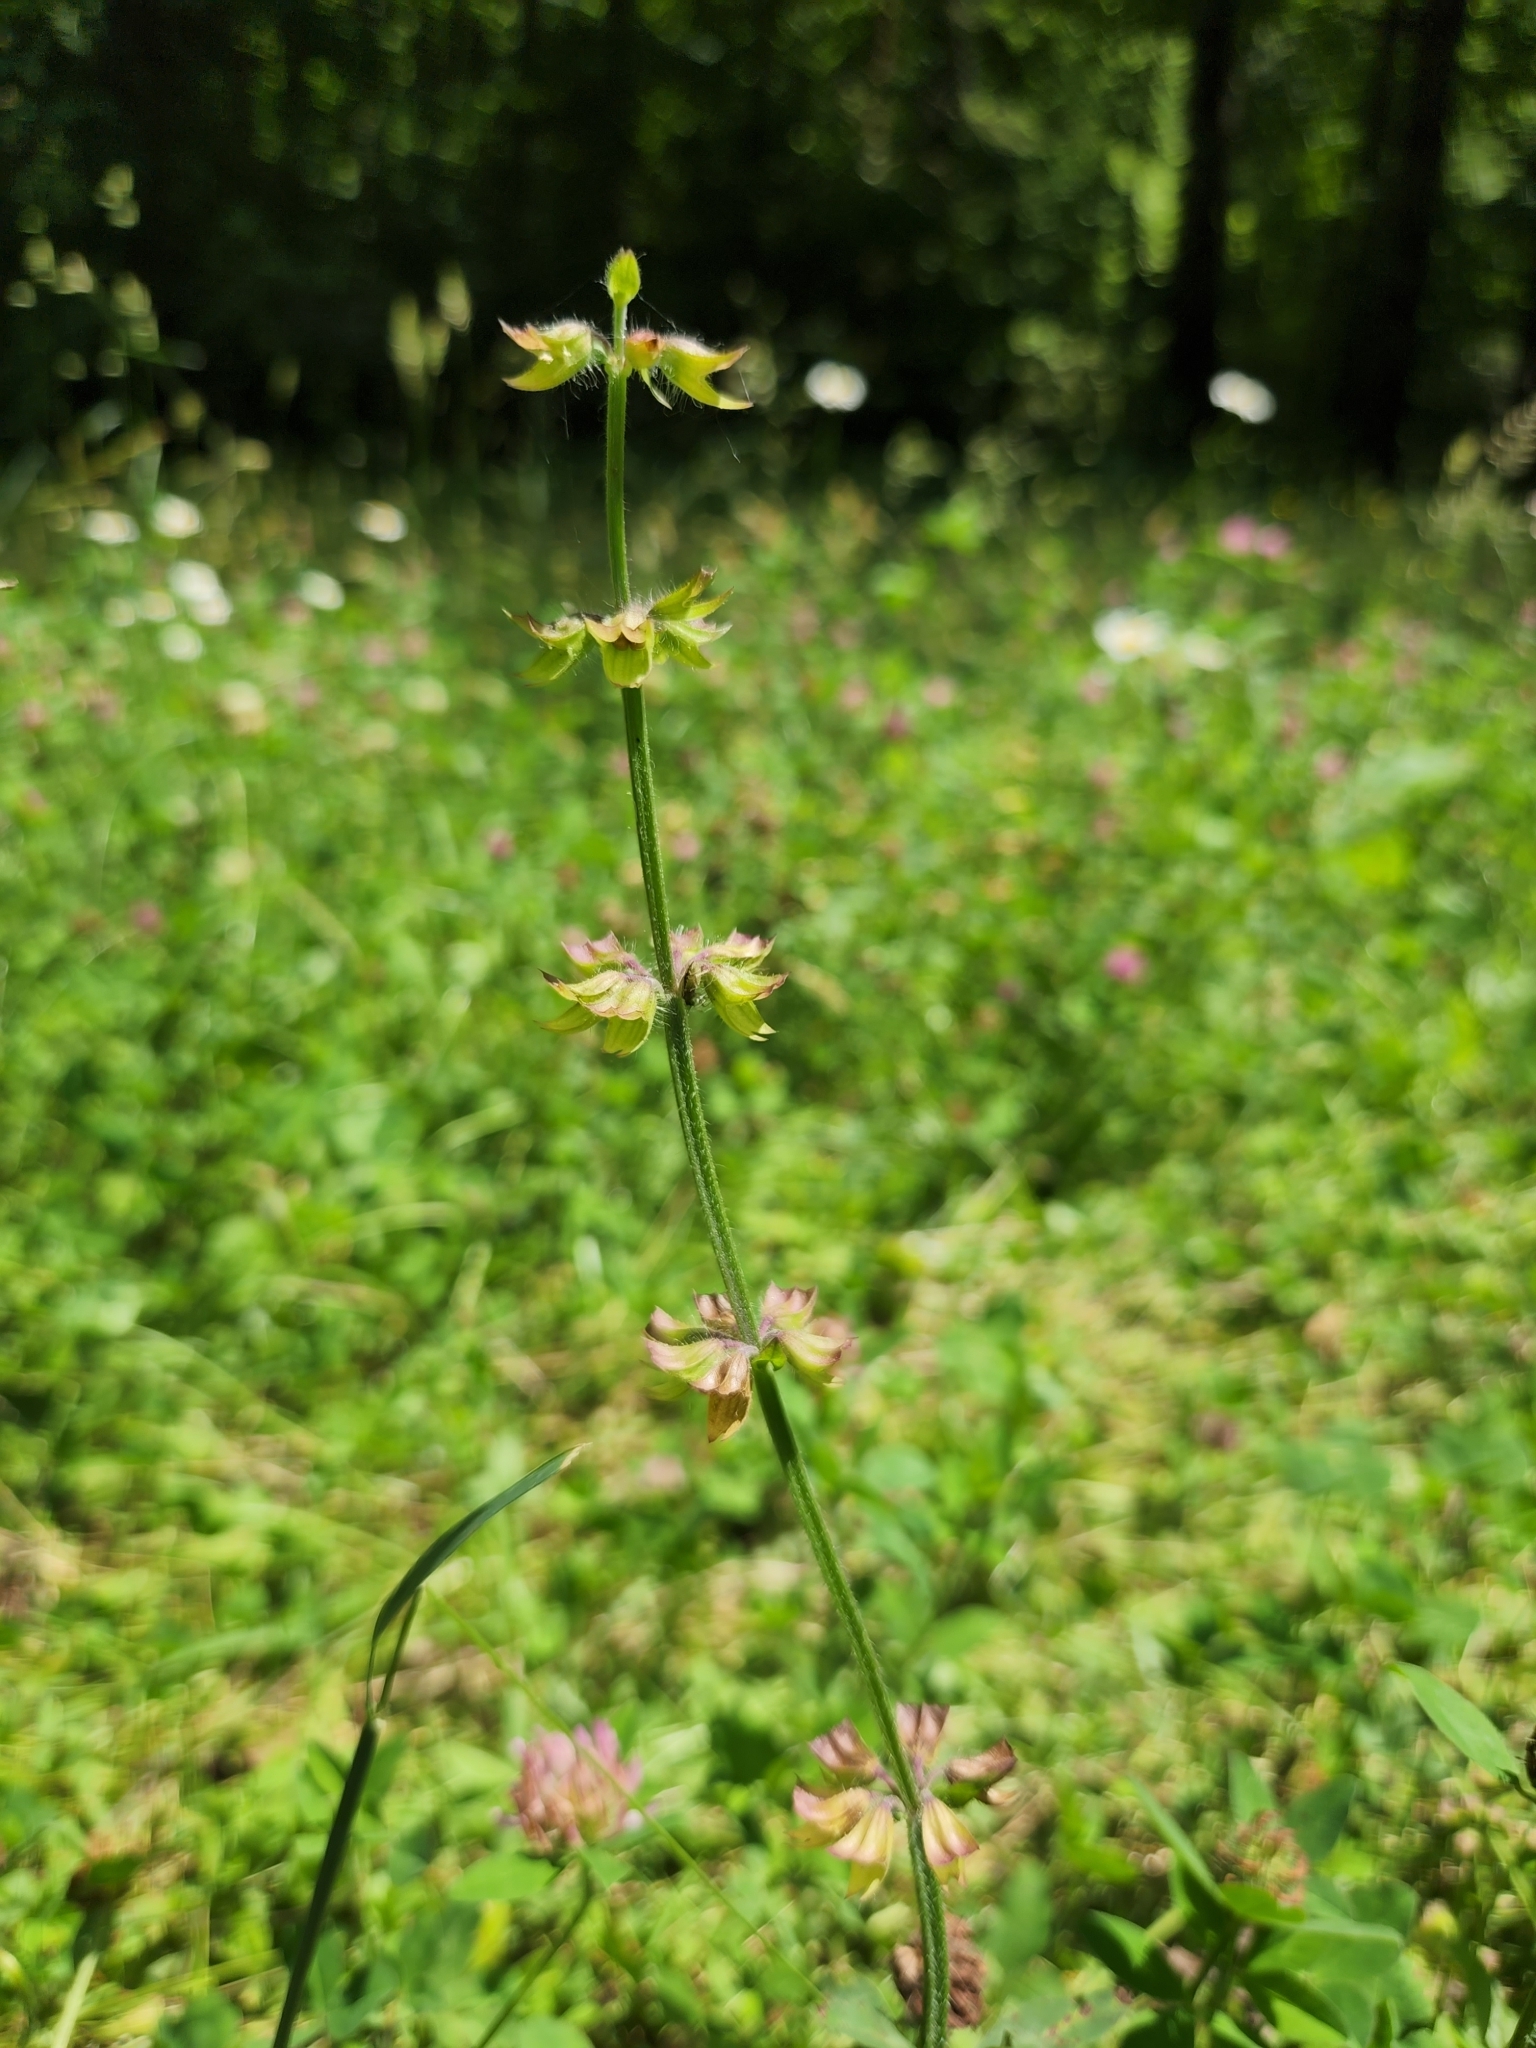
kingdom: Plantae
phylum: Tracheophyta
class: Magnoliopsida
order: Lamiales
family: Lamiaceae
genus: Salvia
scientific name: Salvia lyrata
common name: Cancerweed
